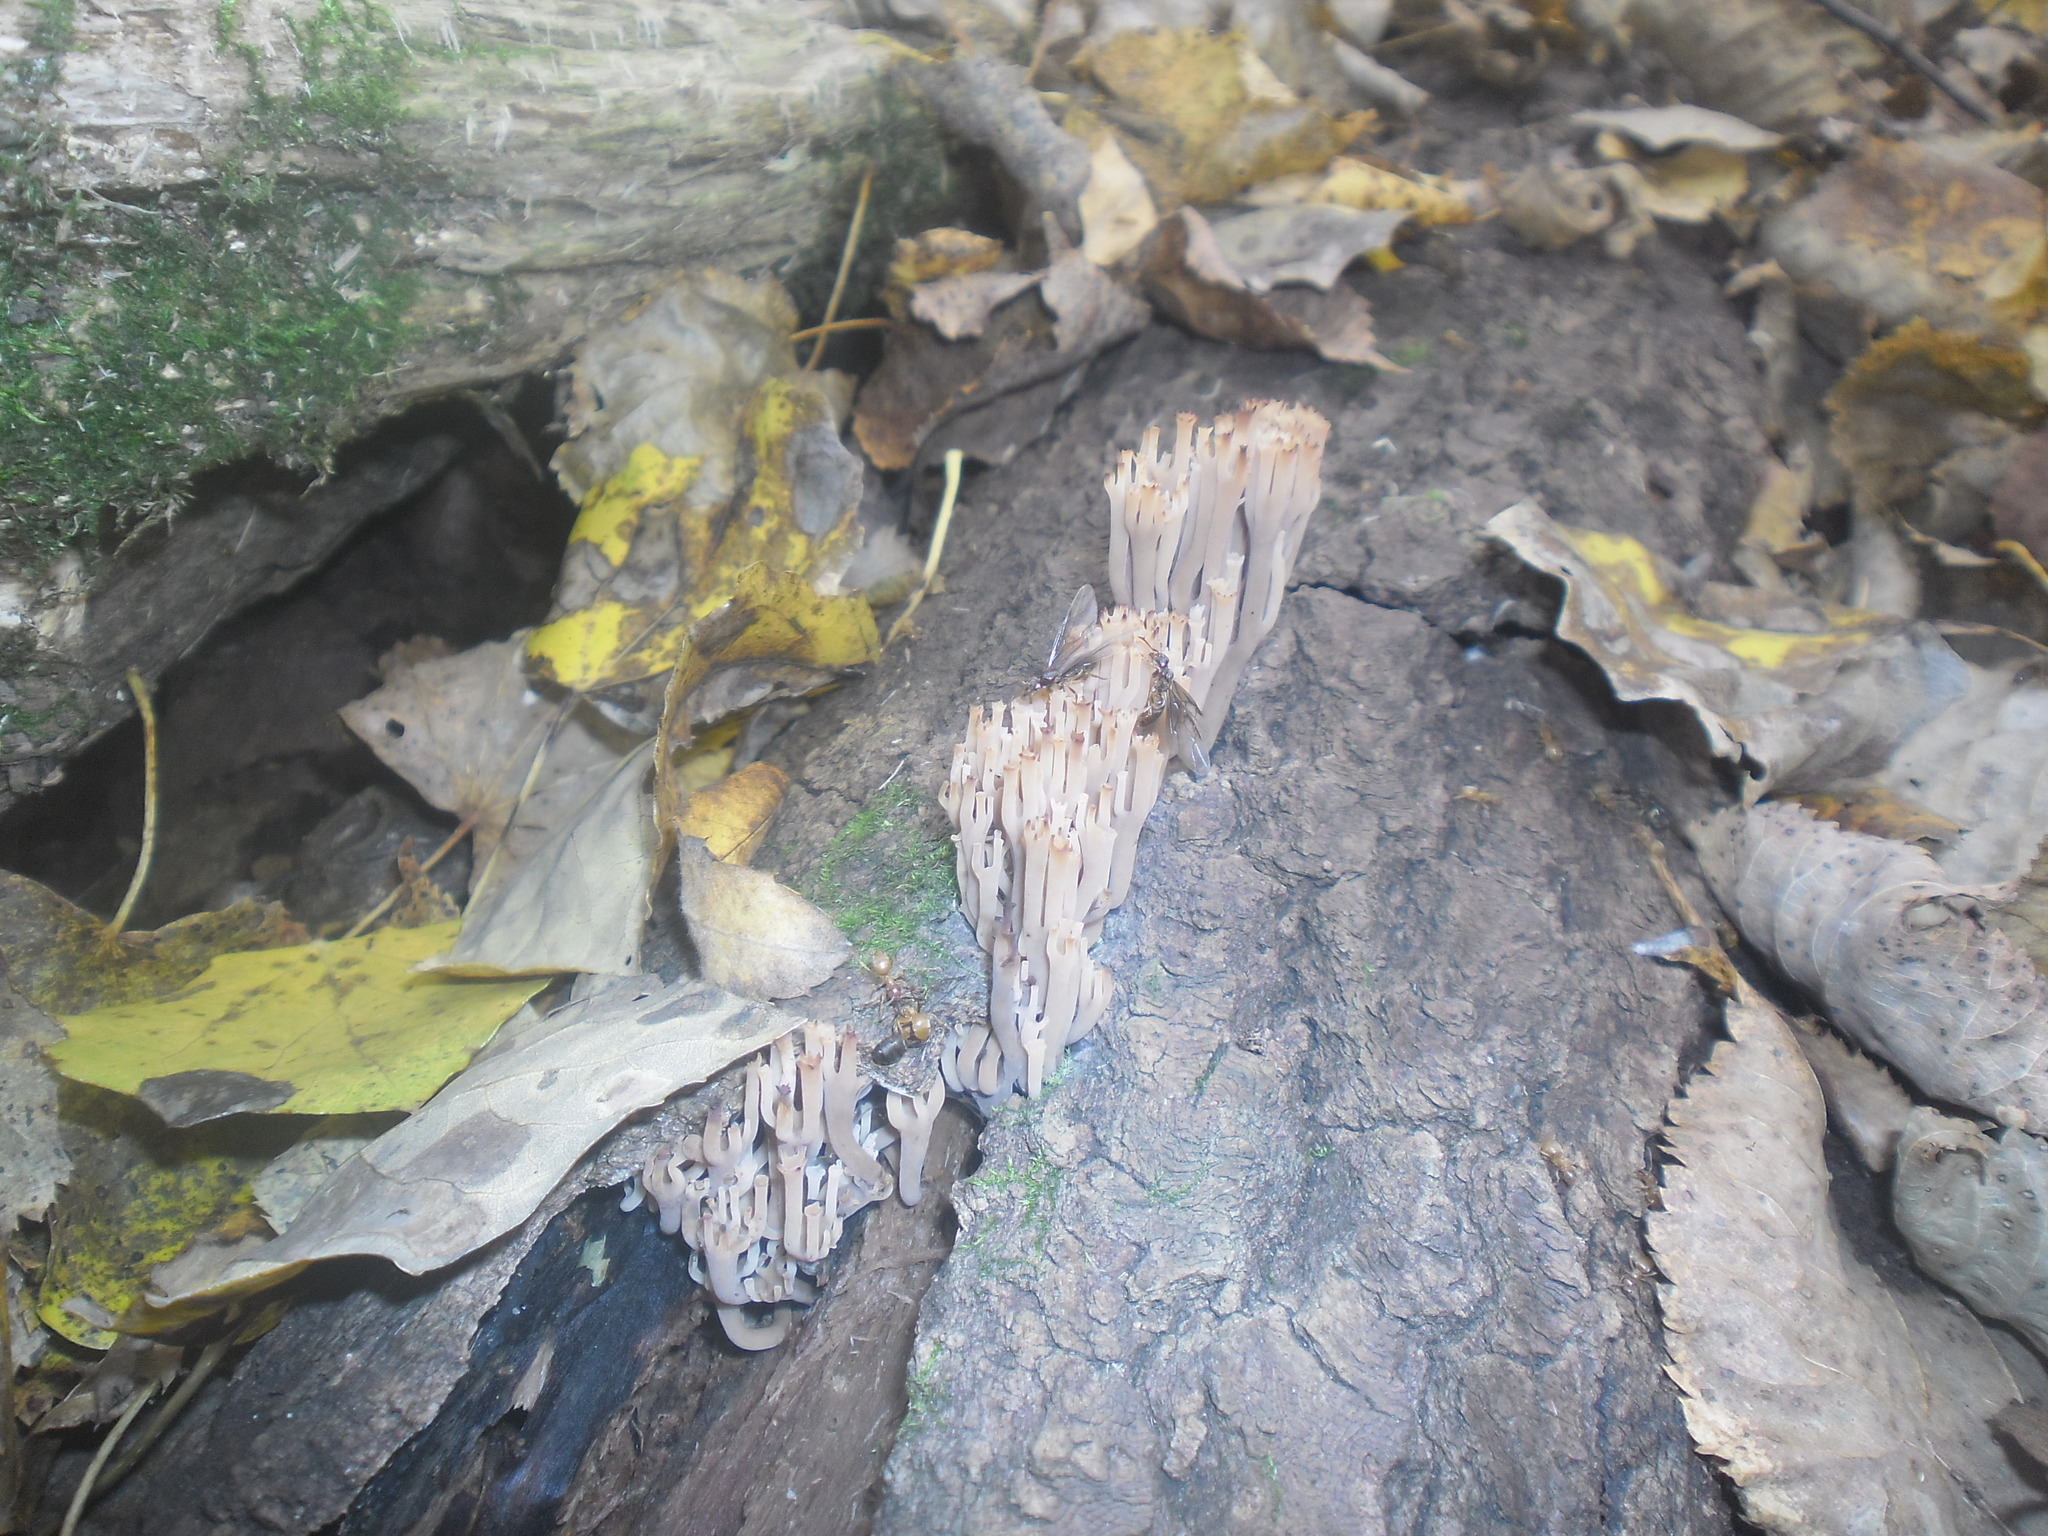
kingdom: Fungi
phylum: Basidiomycota
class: Agaricomycetes
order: Russulales
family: Auriscalpiaceae
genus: Artomyces
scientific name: Artomyces pyxidatus
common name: Crown-tipped coral fungus
